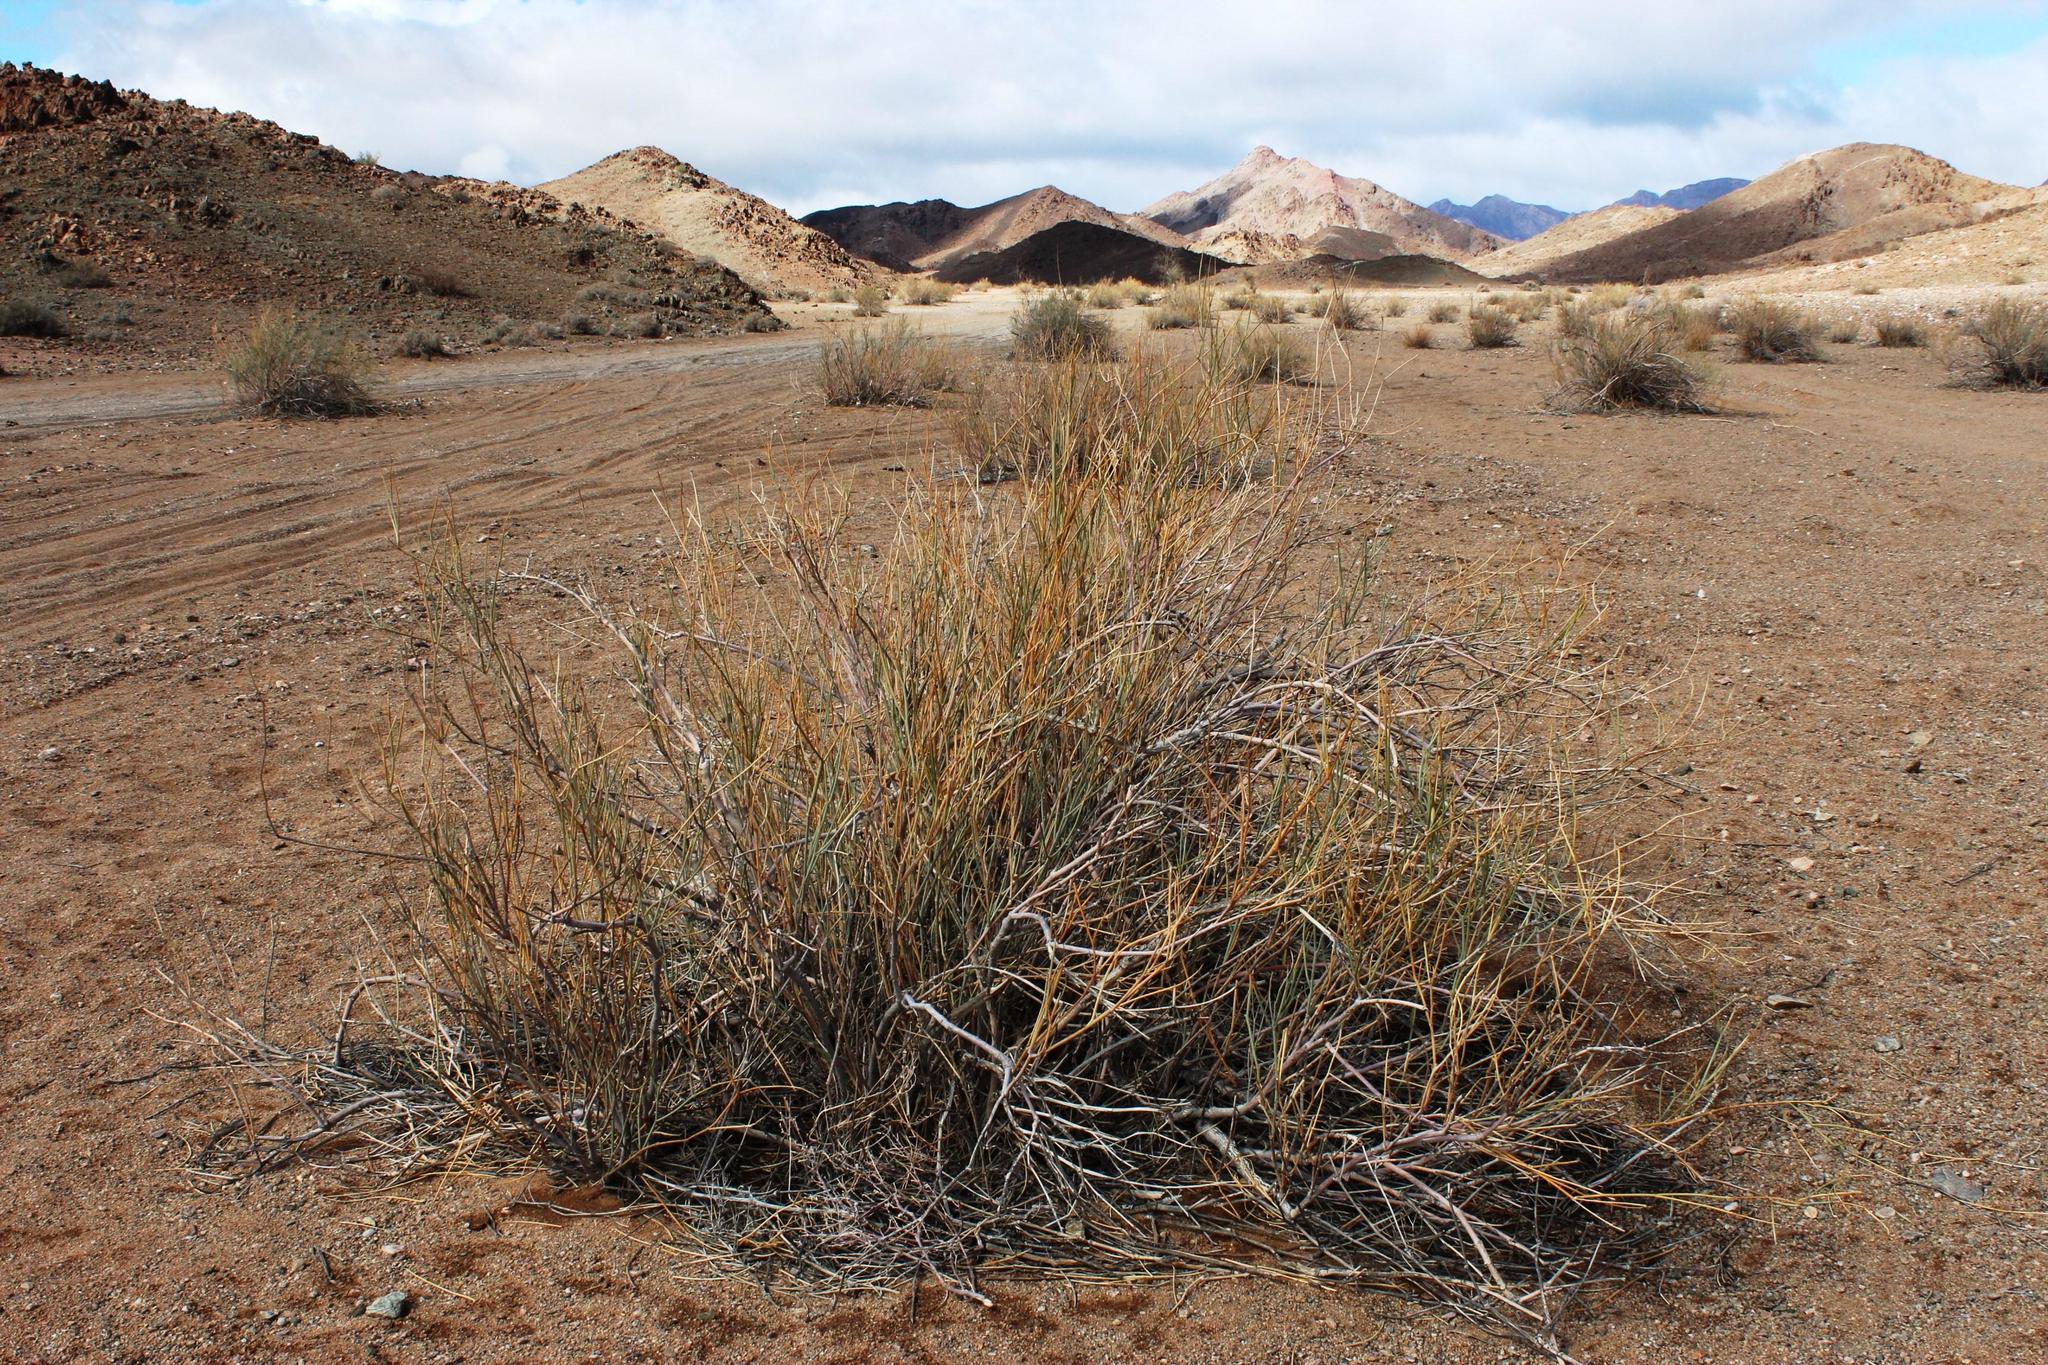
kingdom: Plantae
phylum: Tracheophyta
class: Magnoliopsida
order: Zygophyllales
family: Zygophyllaceae
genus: Sisyndite
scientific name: Sisyndite spartea
